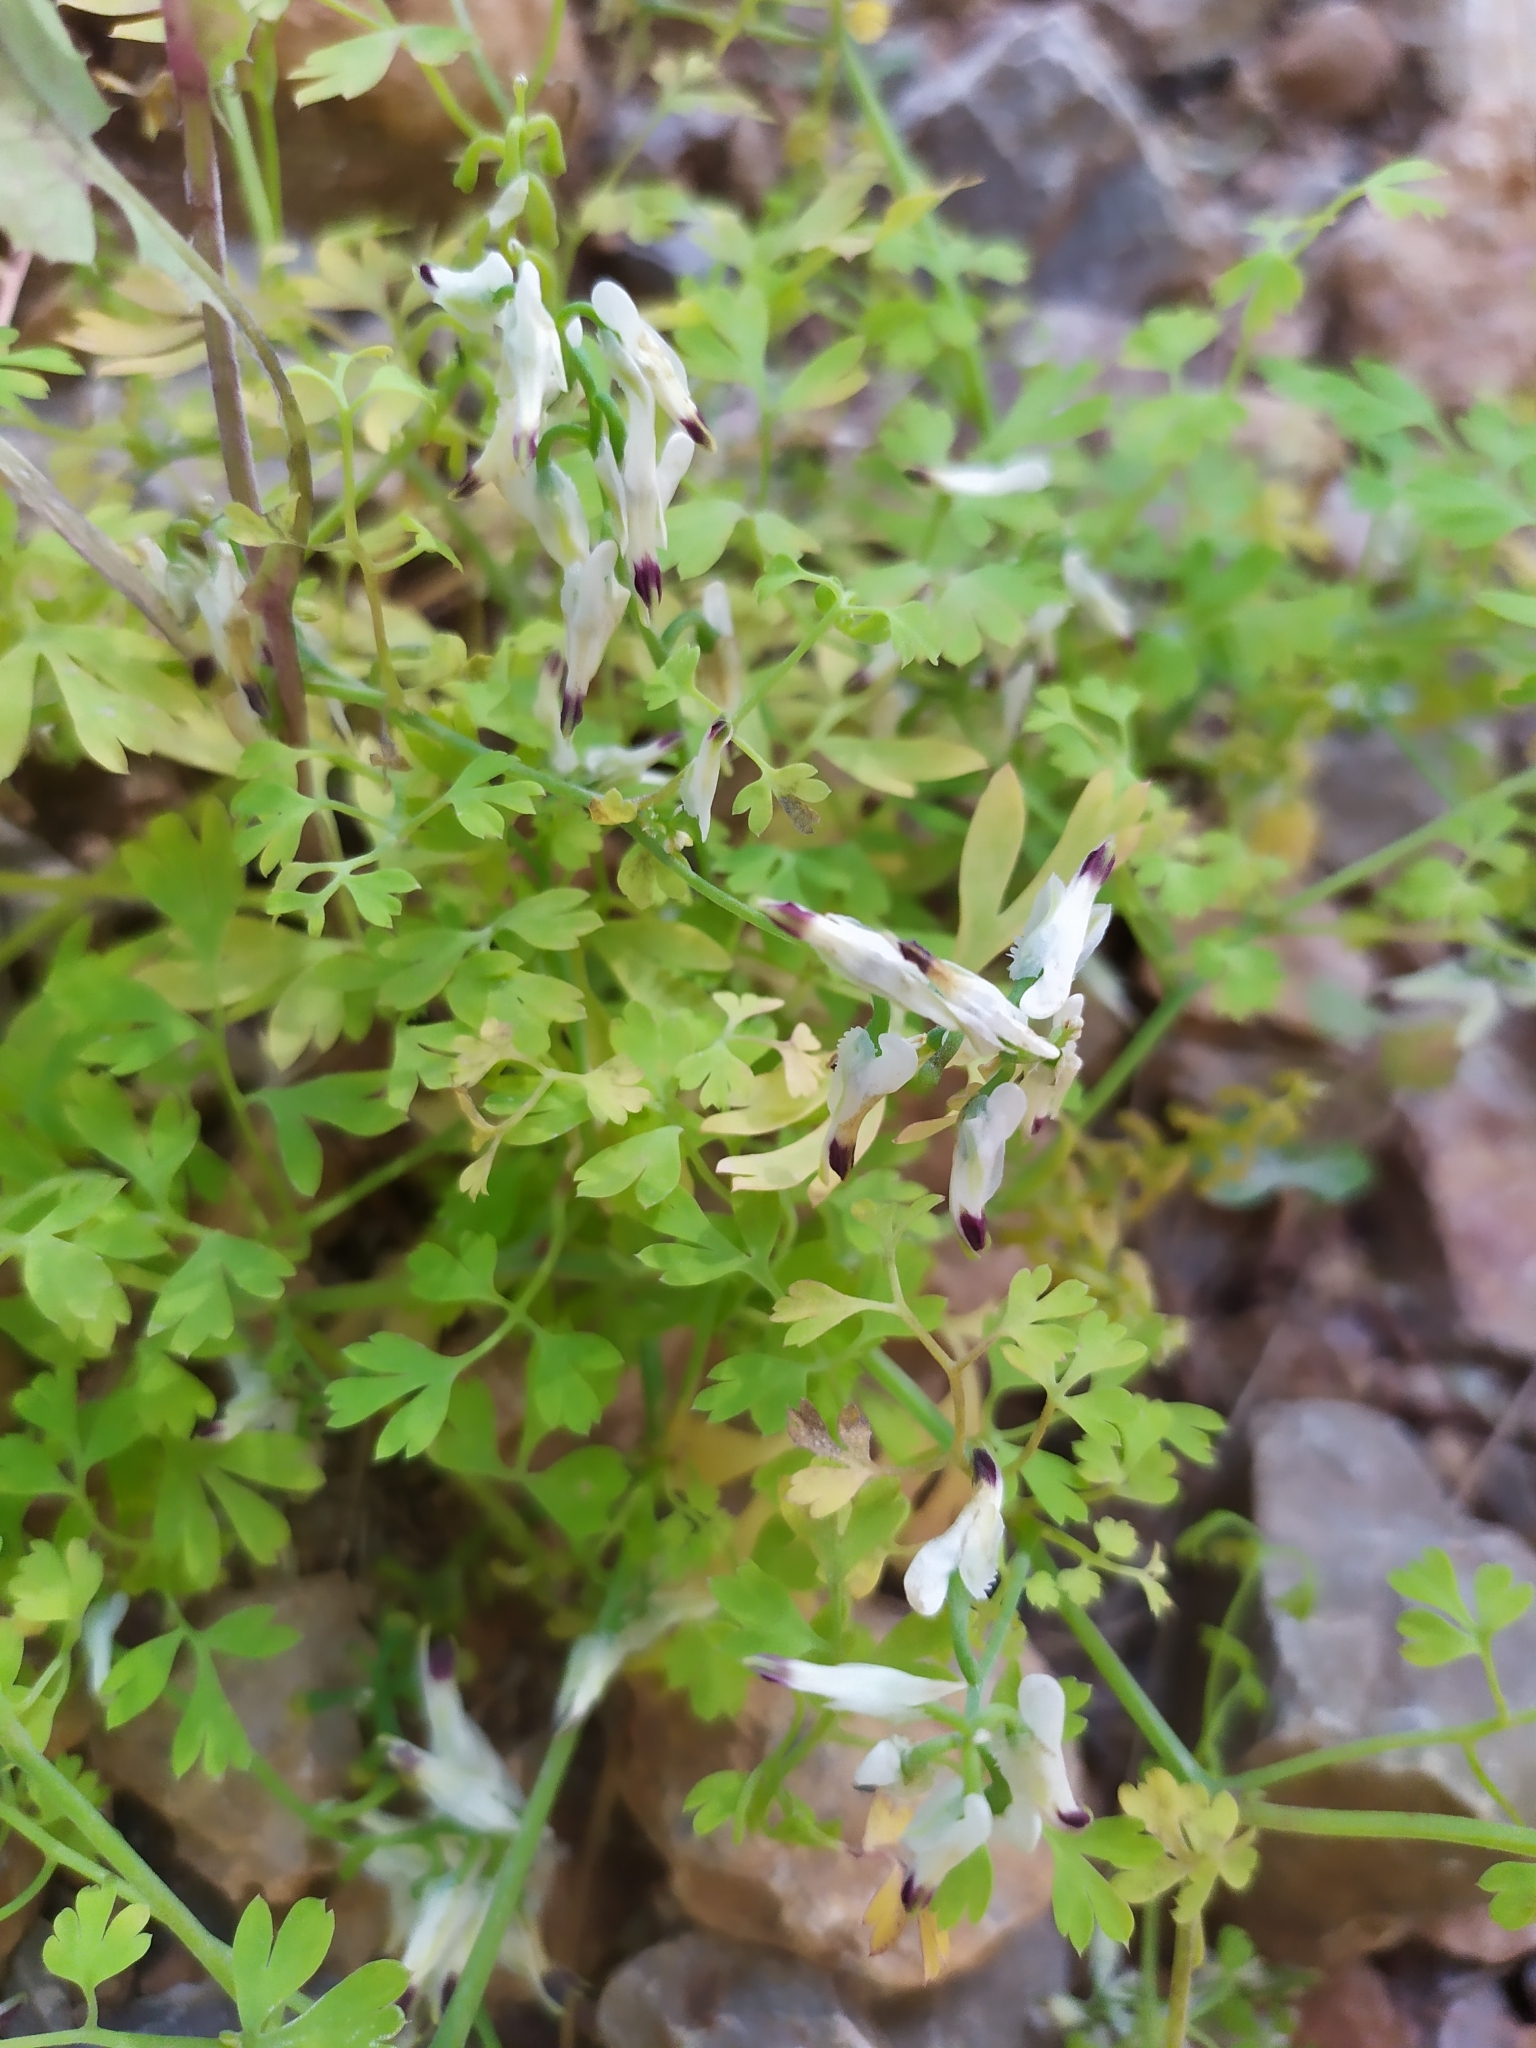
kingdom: Plantae
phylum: Tracheophyta
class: Magnoliopsida
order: Ranunculales
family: Papaveraceae
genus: Fumaria
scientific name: Fumaria capreolata
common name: White ramping-fumitory
